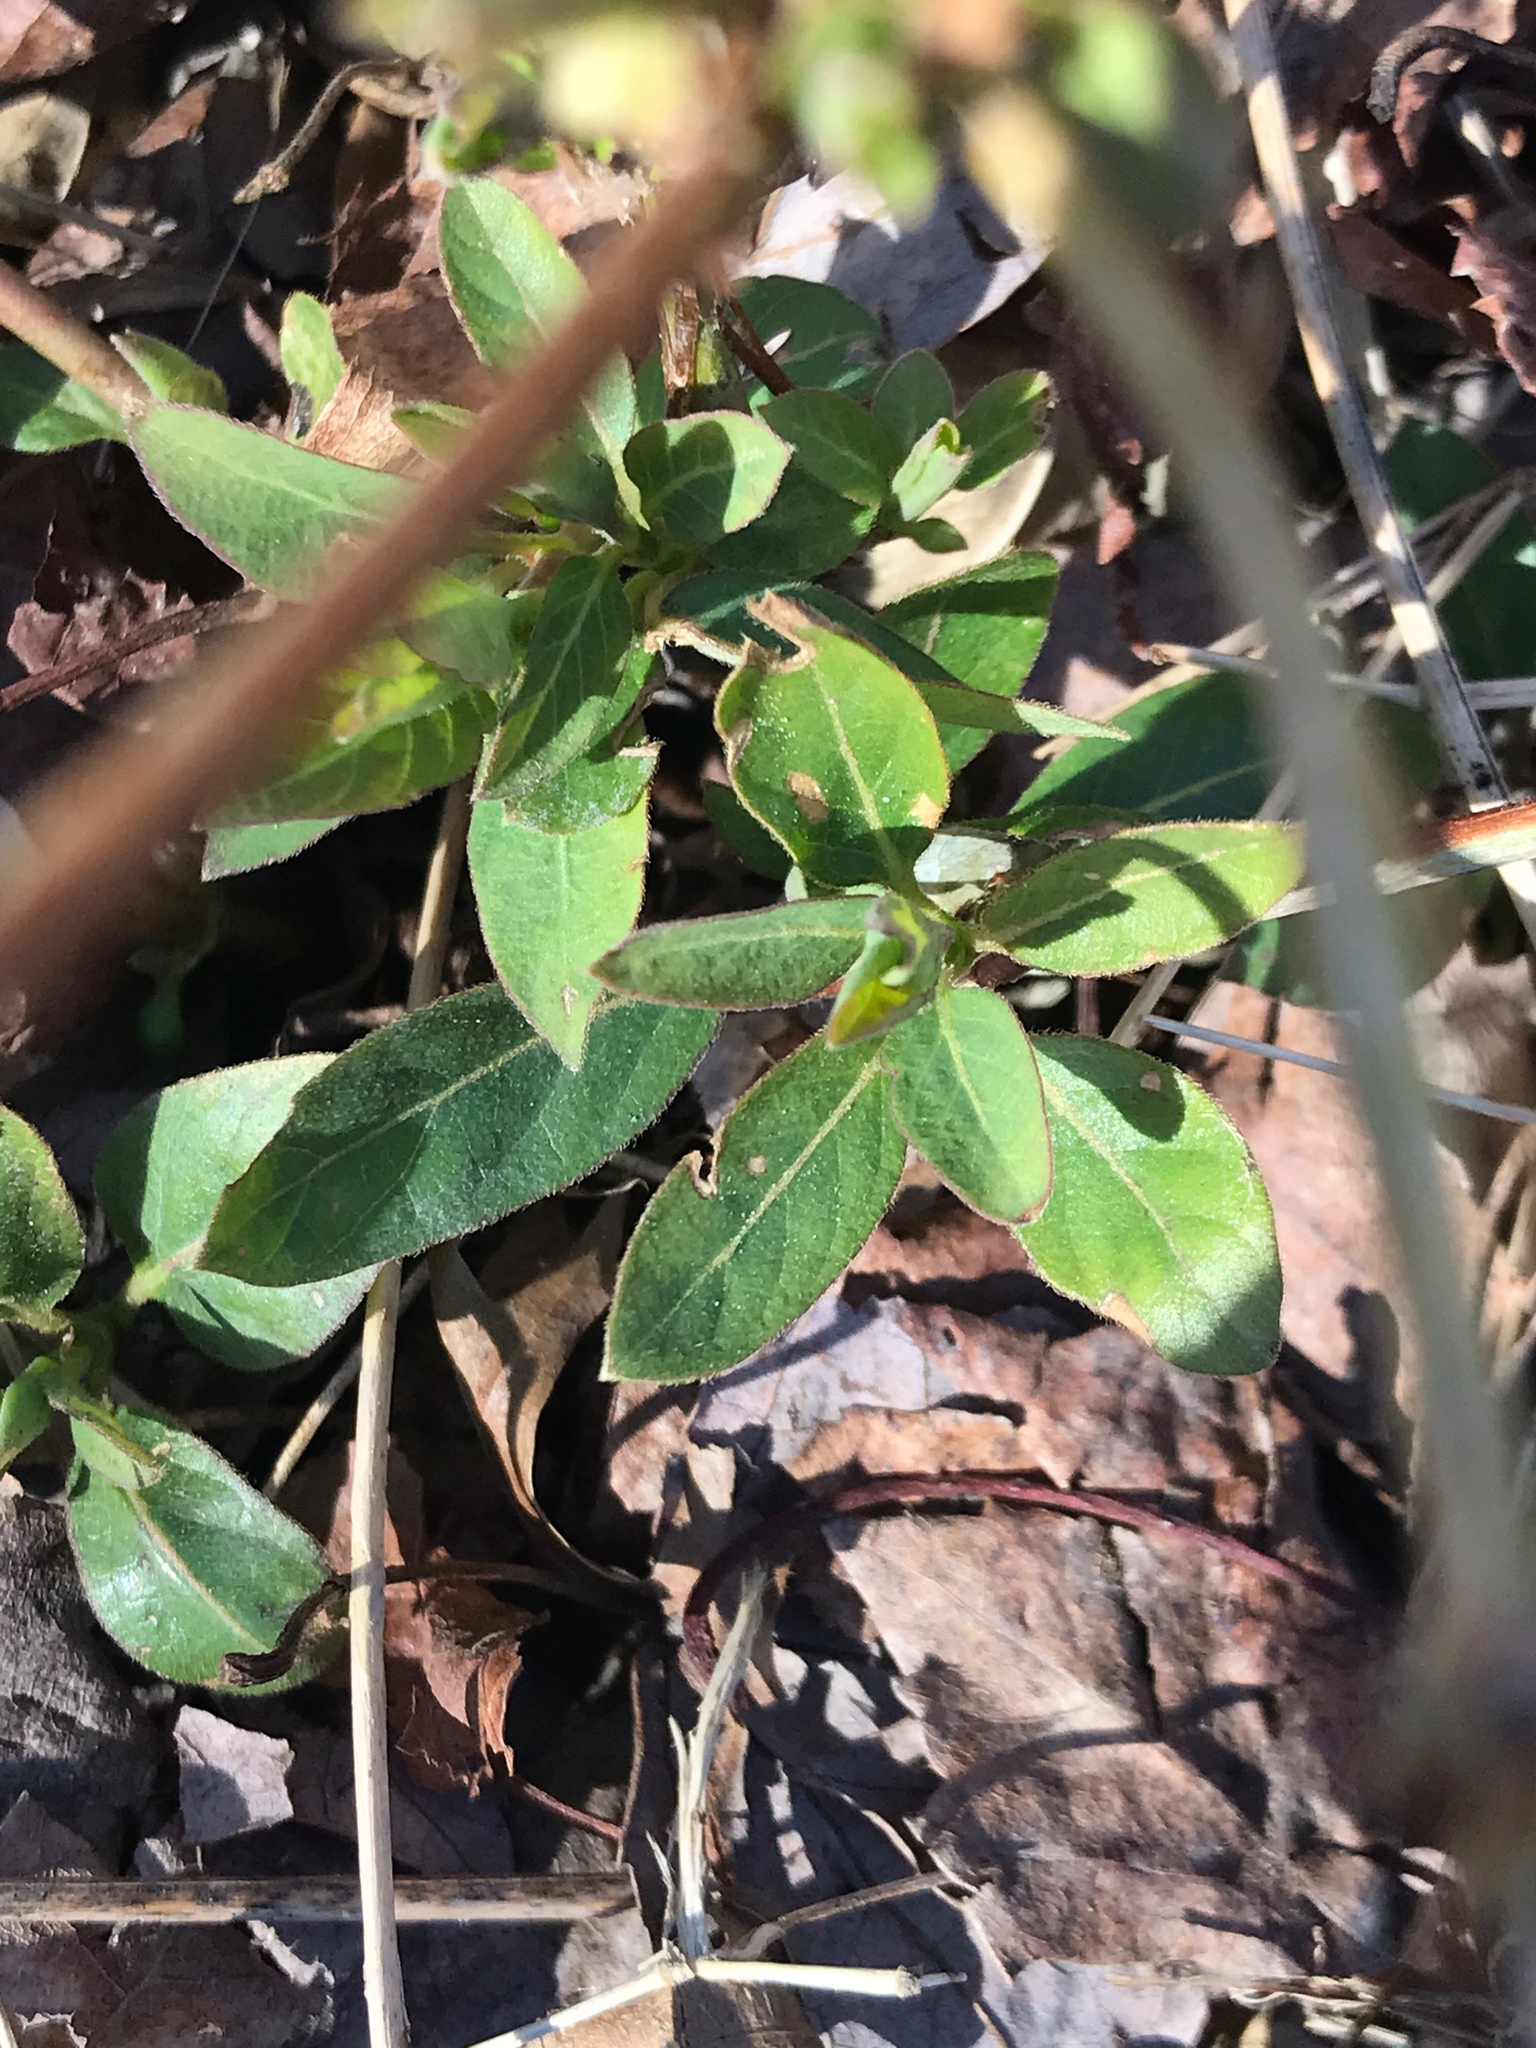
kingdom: Plantae
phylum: Tracheophyta
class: Magnoliopsida
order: Dipsacales
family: Caprifoliaceae
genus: Lonicera
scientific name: Lonicera japonica
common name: Japanese honeysuckle
